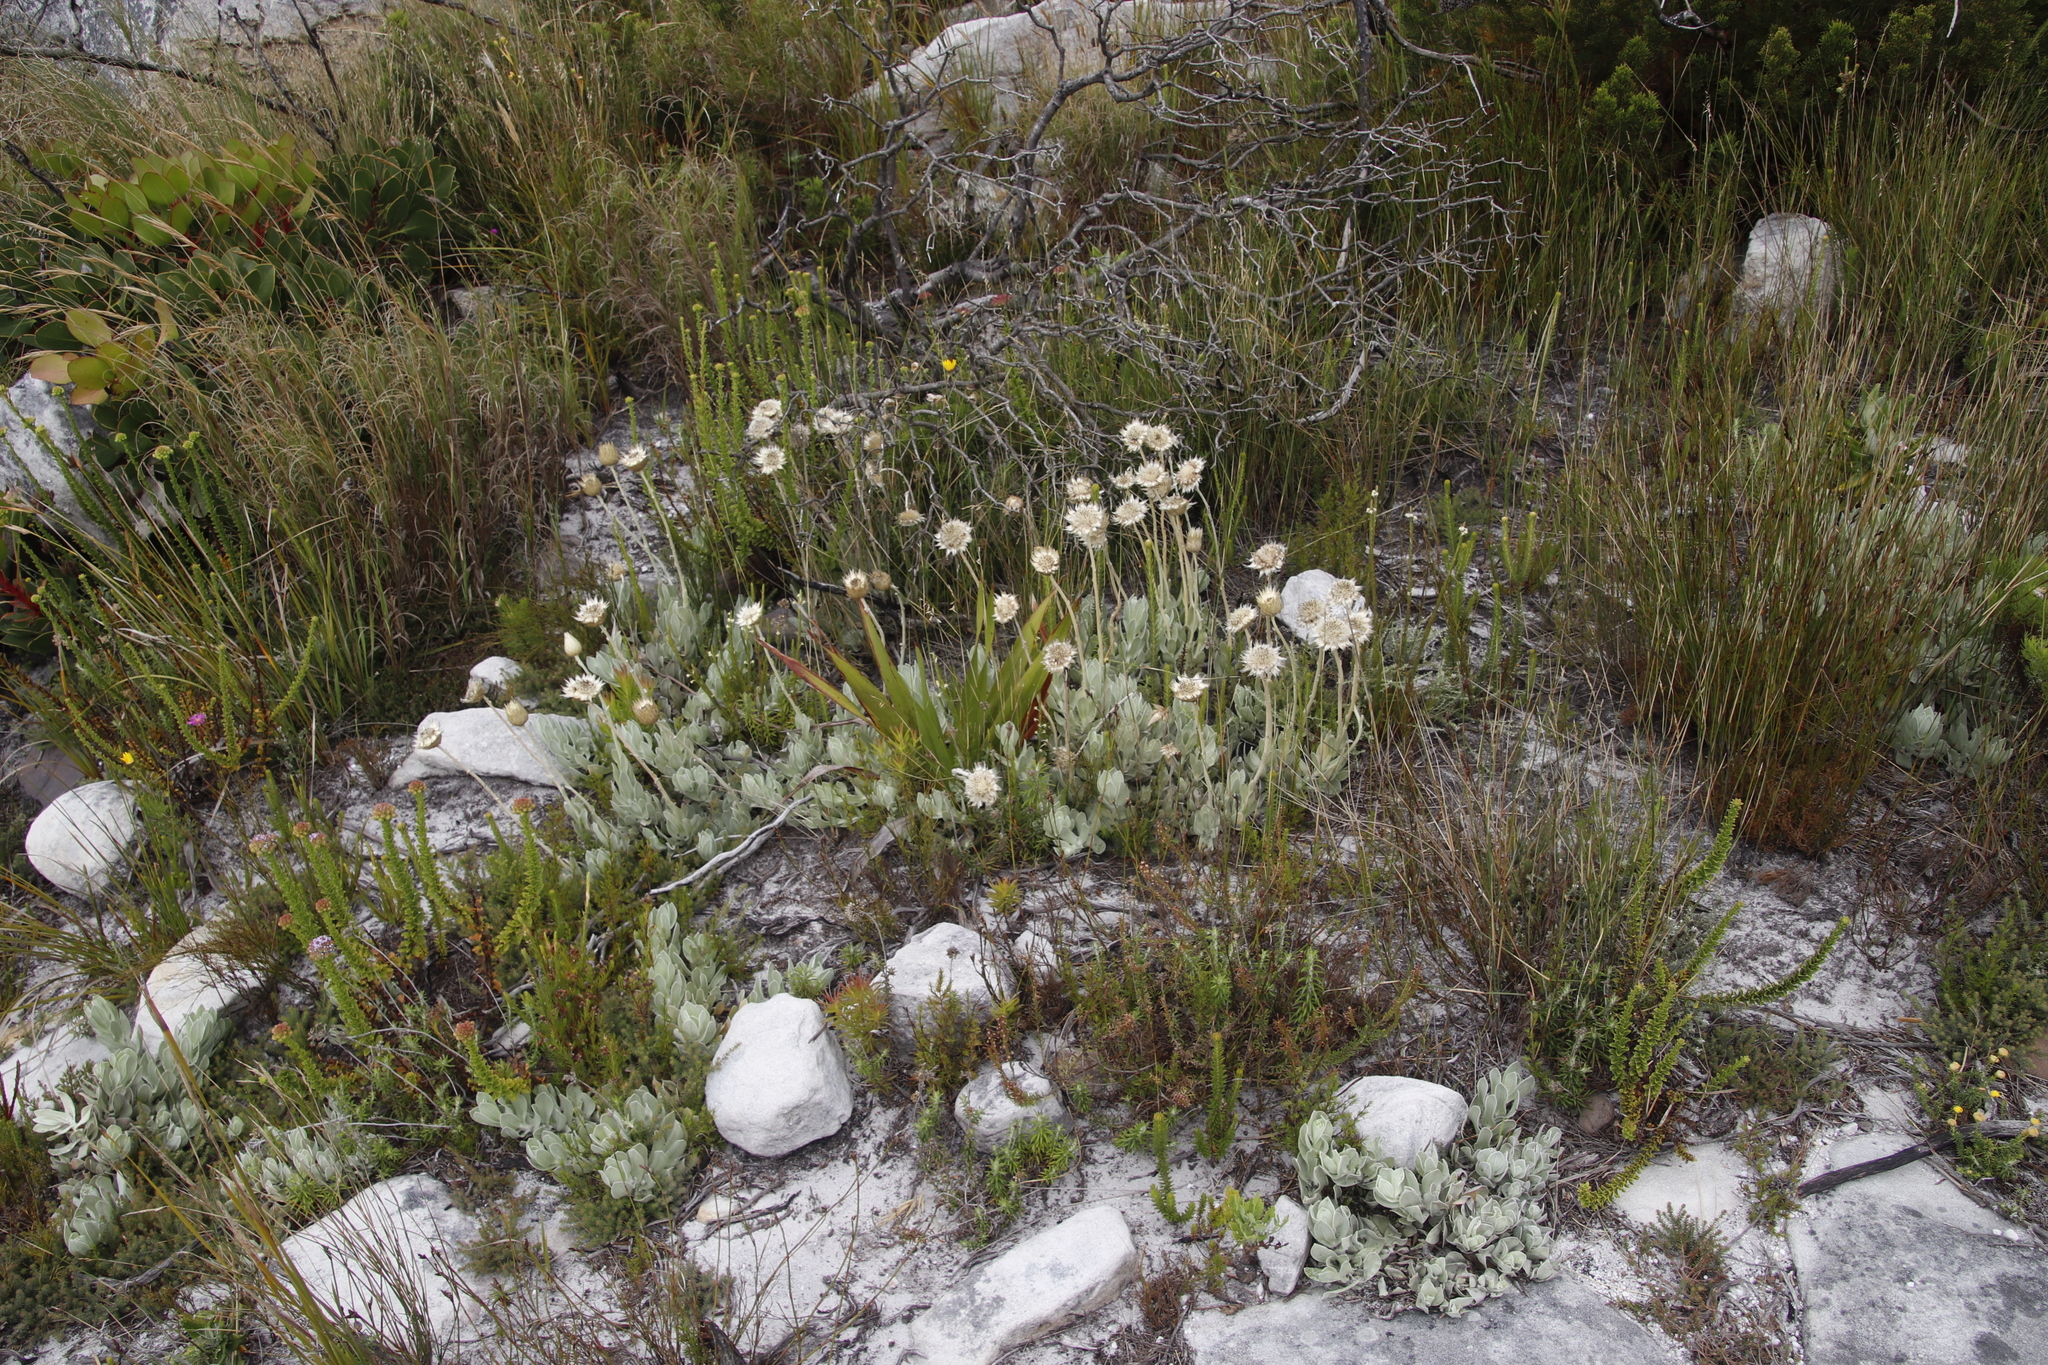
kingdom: Plantae
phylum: Tracheophyta
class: Magnoliopsida
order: Asterales
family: Asteraceae
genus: Syncarpha
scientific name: Syncarpha speciosissima
